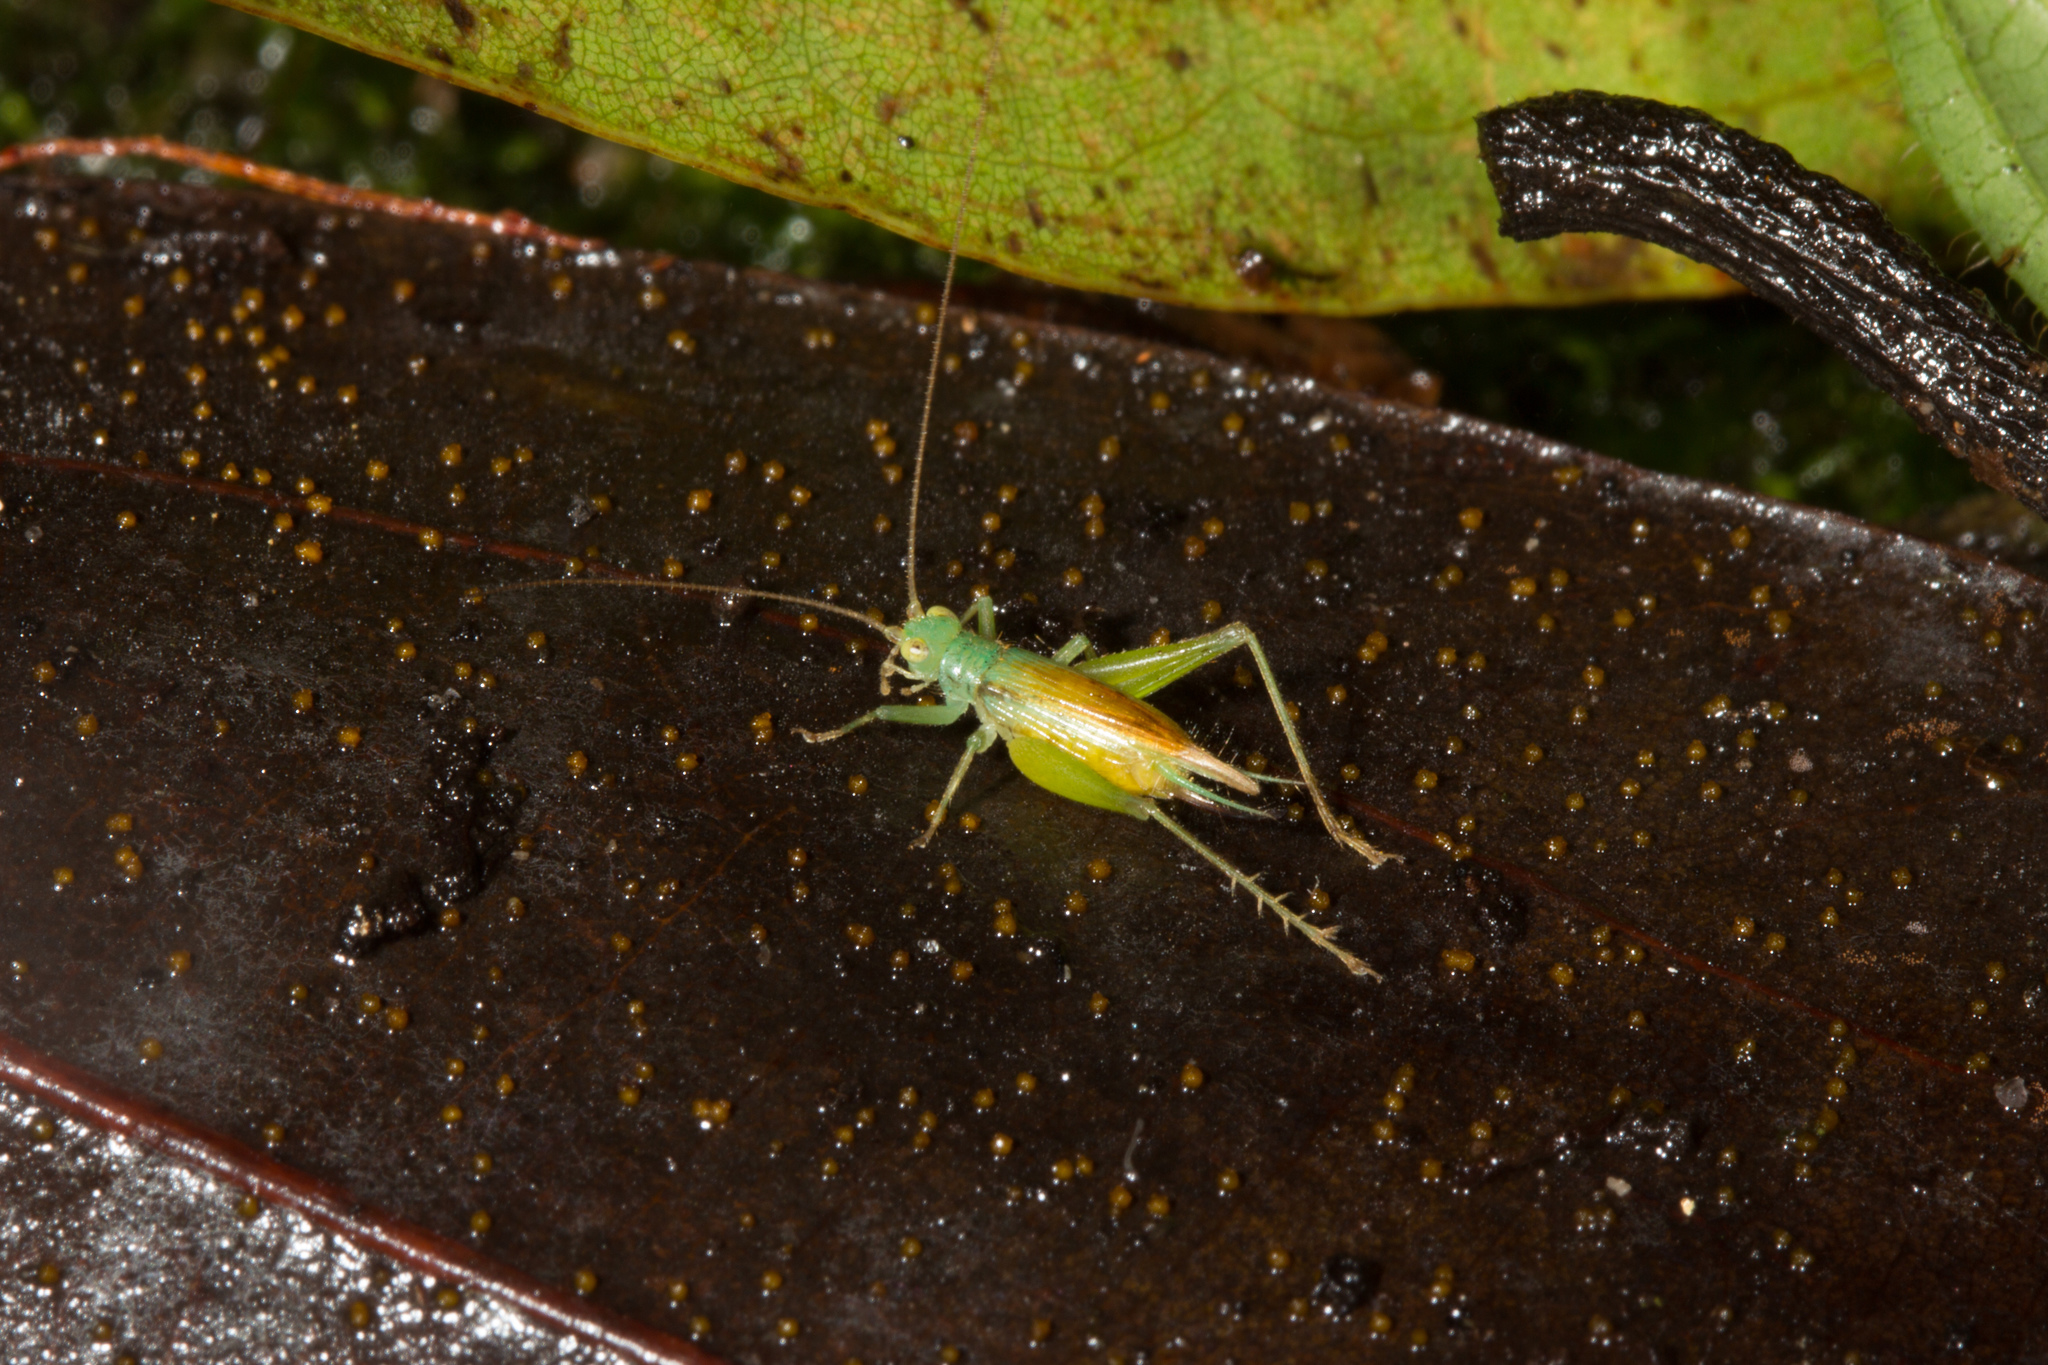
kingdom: Animalia
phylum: Arthropoda
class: Insecta
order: Orthoptera
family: Trigonidiidae
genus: Zarceomorpha
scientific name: Zarceomorpha abdita
